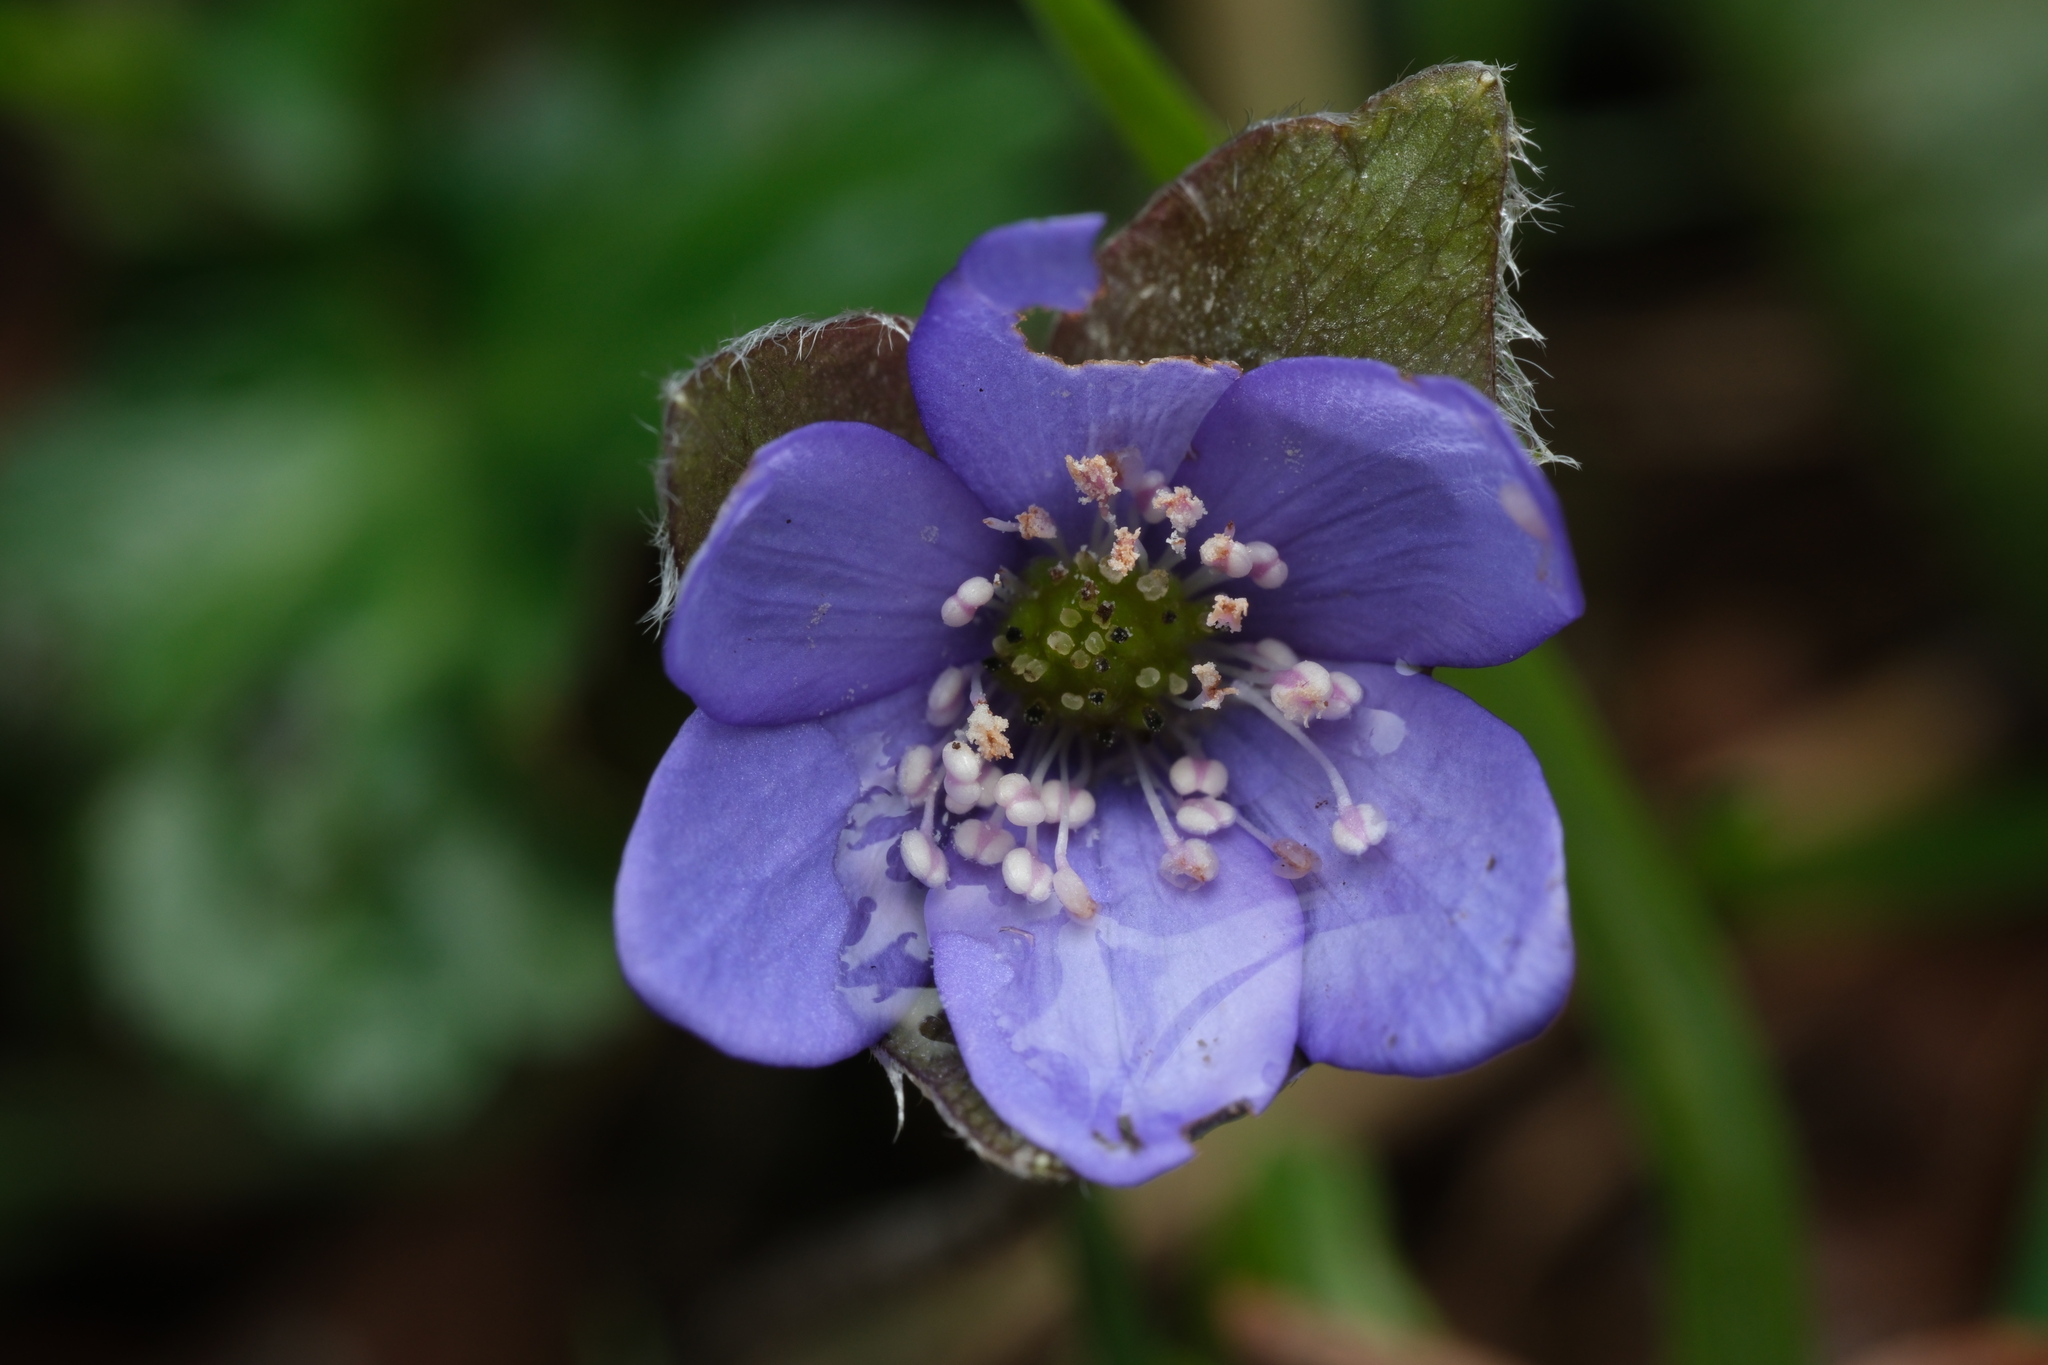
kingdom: Plantae
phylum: Tracheophyta
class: Magnoliopsida
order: Ranunculales
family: Ranunculaceae
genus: Hepatica
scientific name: Hepatica nobilis
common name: Liverleaf
